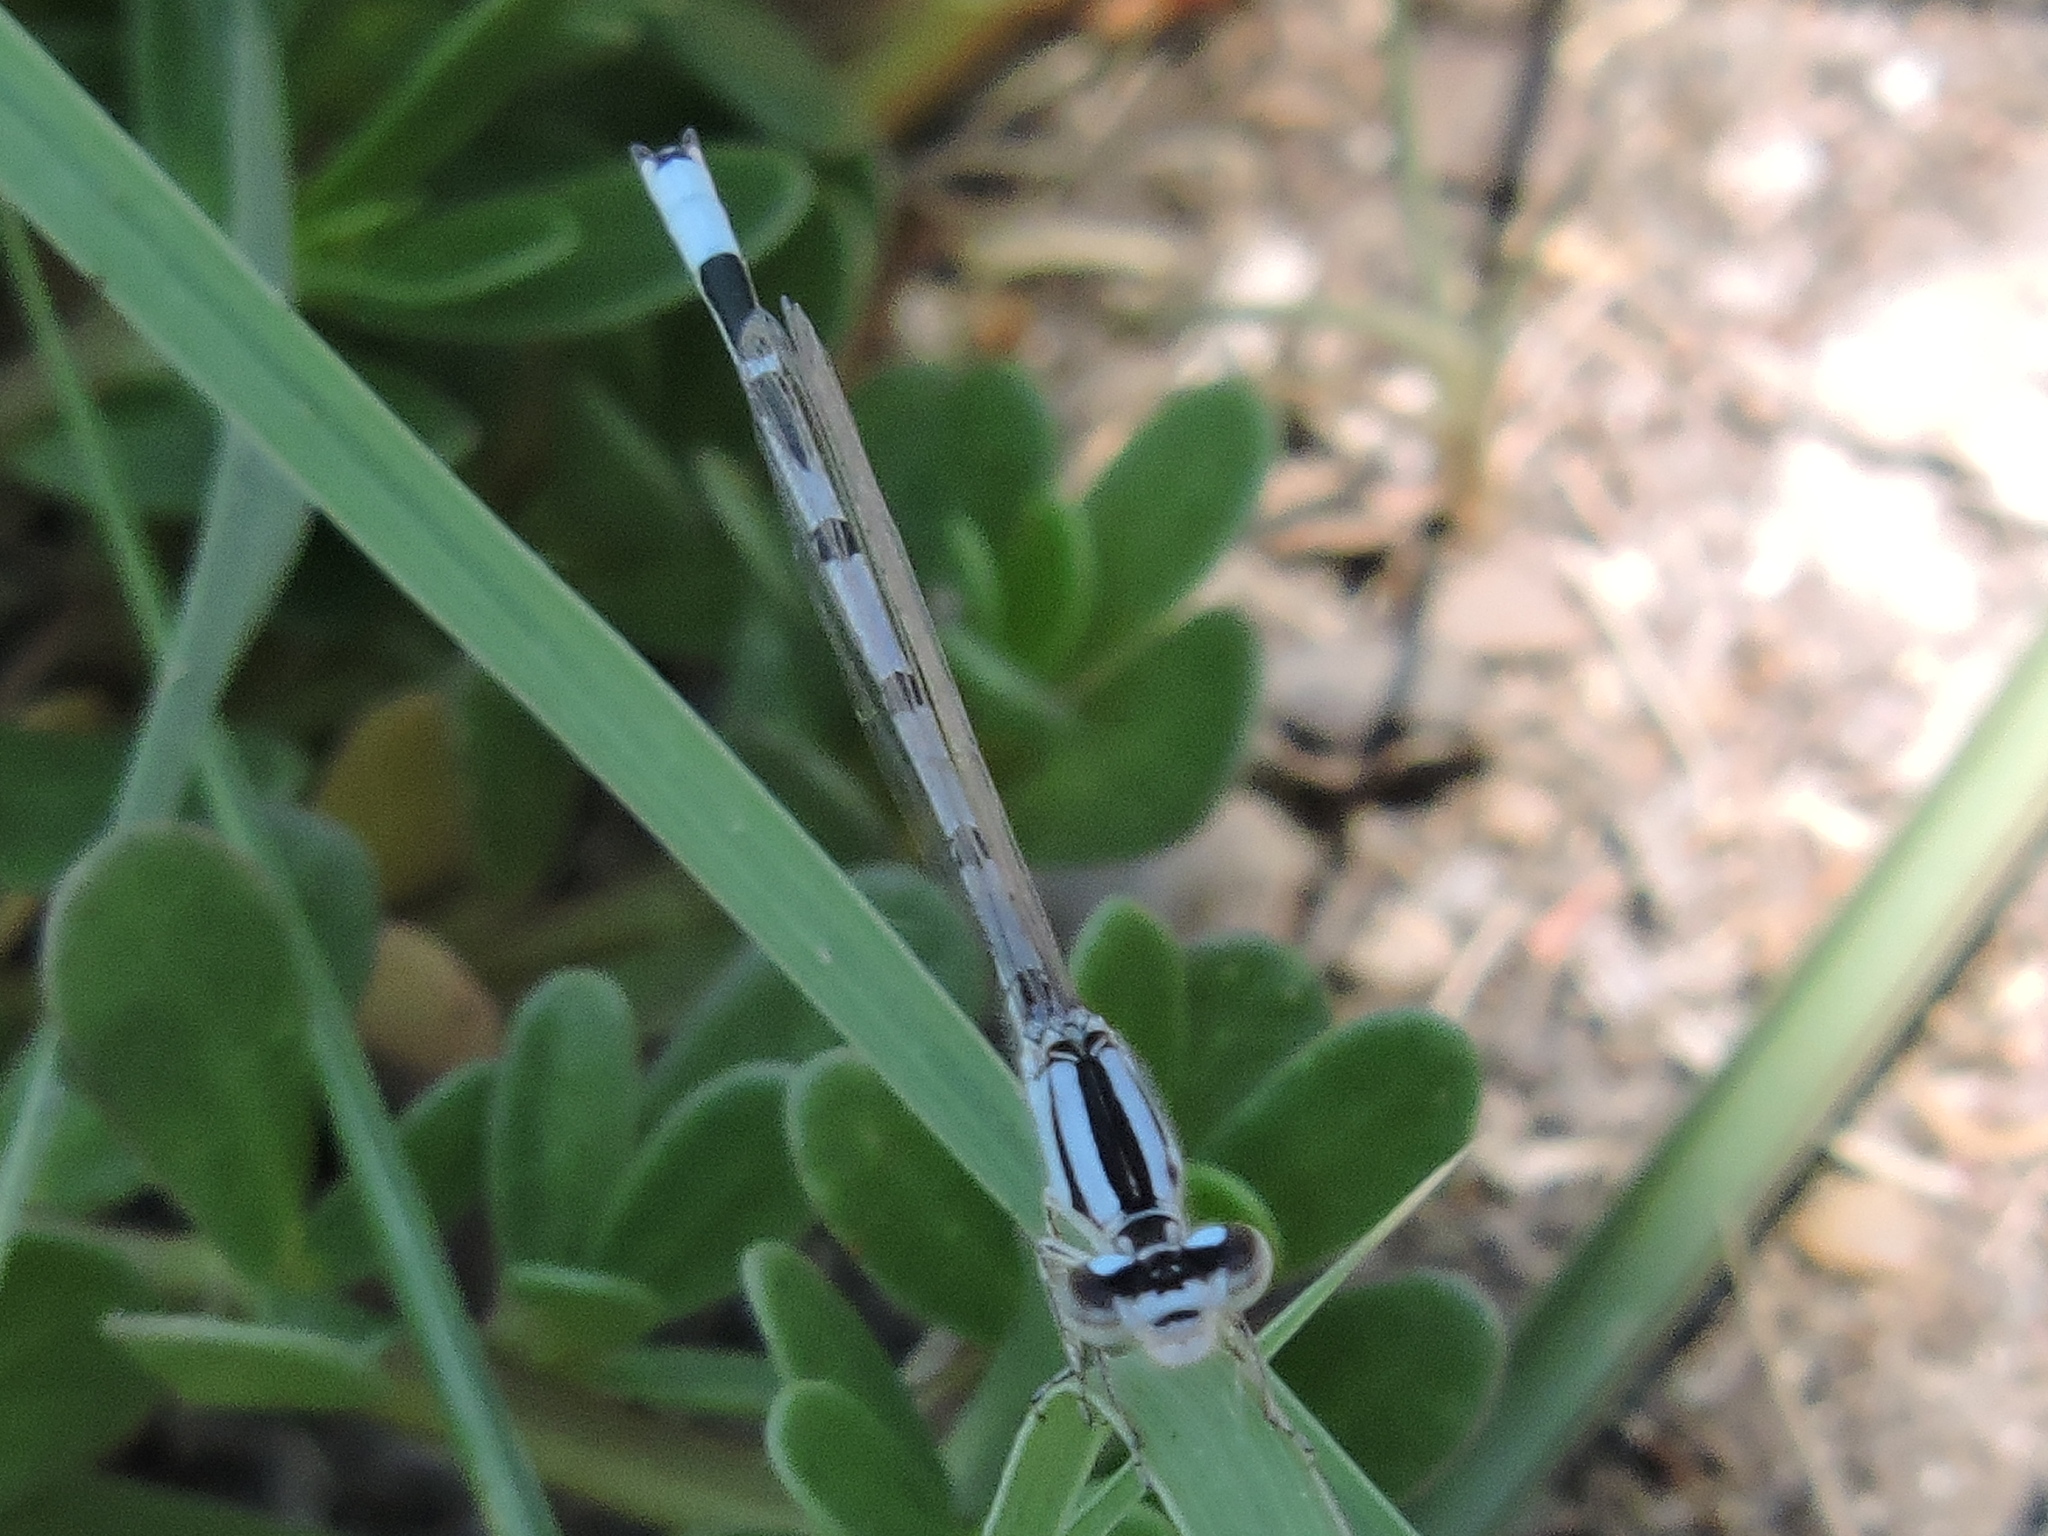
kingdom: Animalia
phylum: Arthropoda
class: Insecta
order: Odonata
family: Coenagrionidae
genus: Enallagma
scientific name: Enallagma civile
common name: Damselfly
